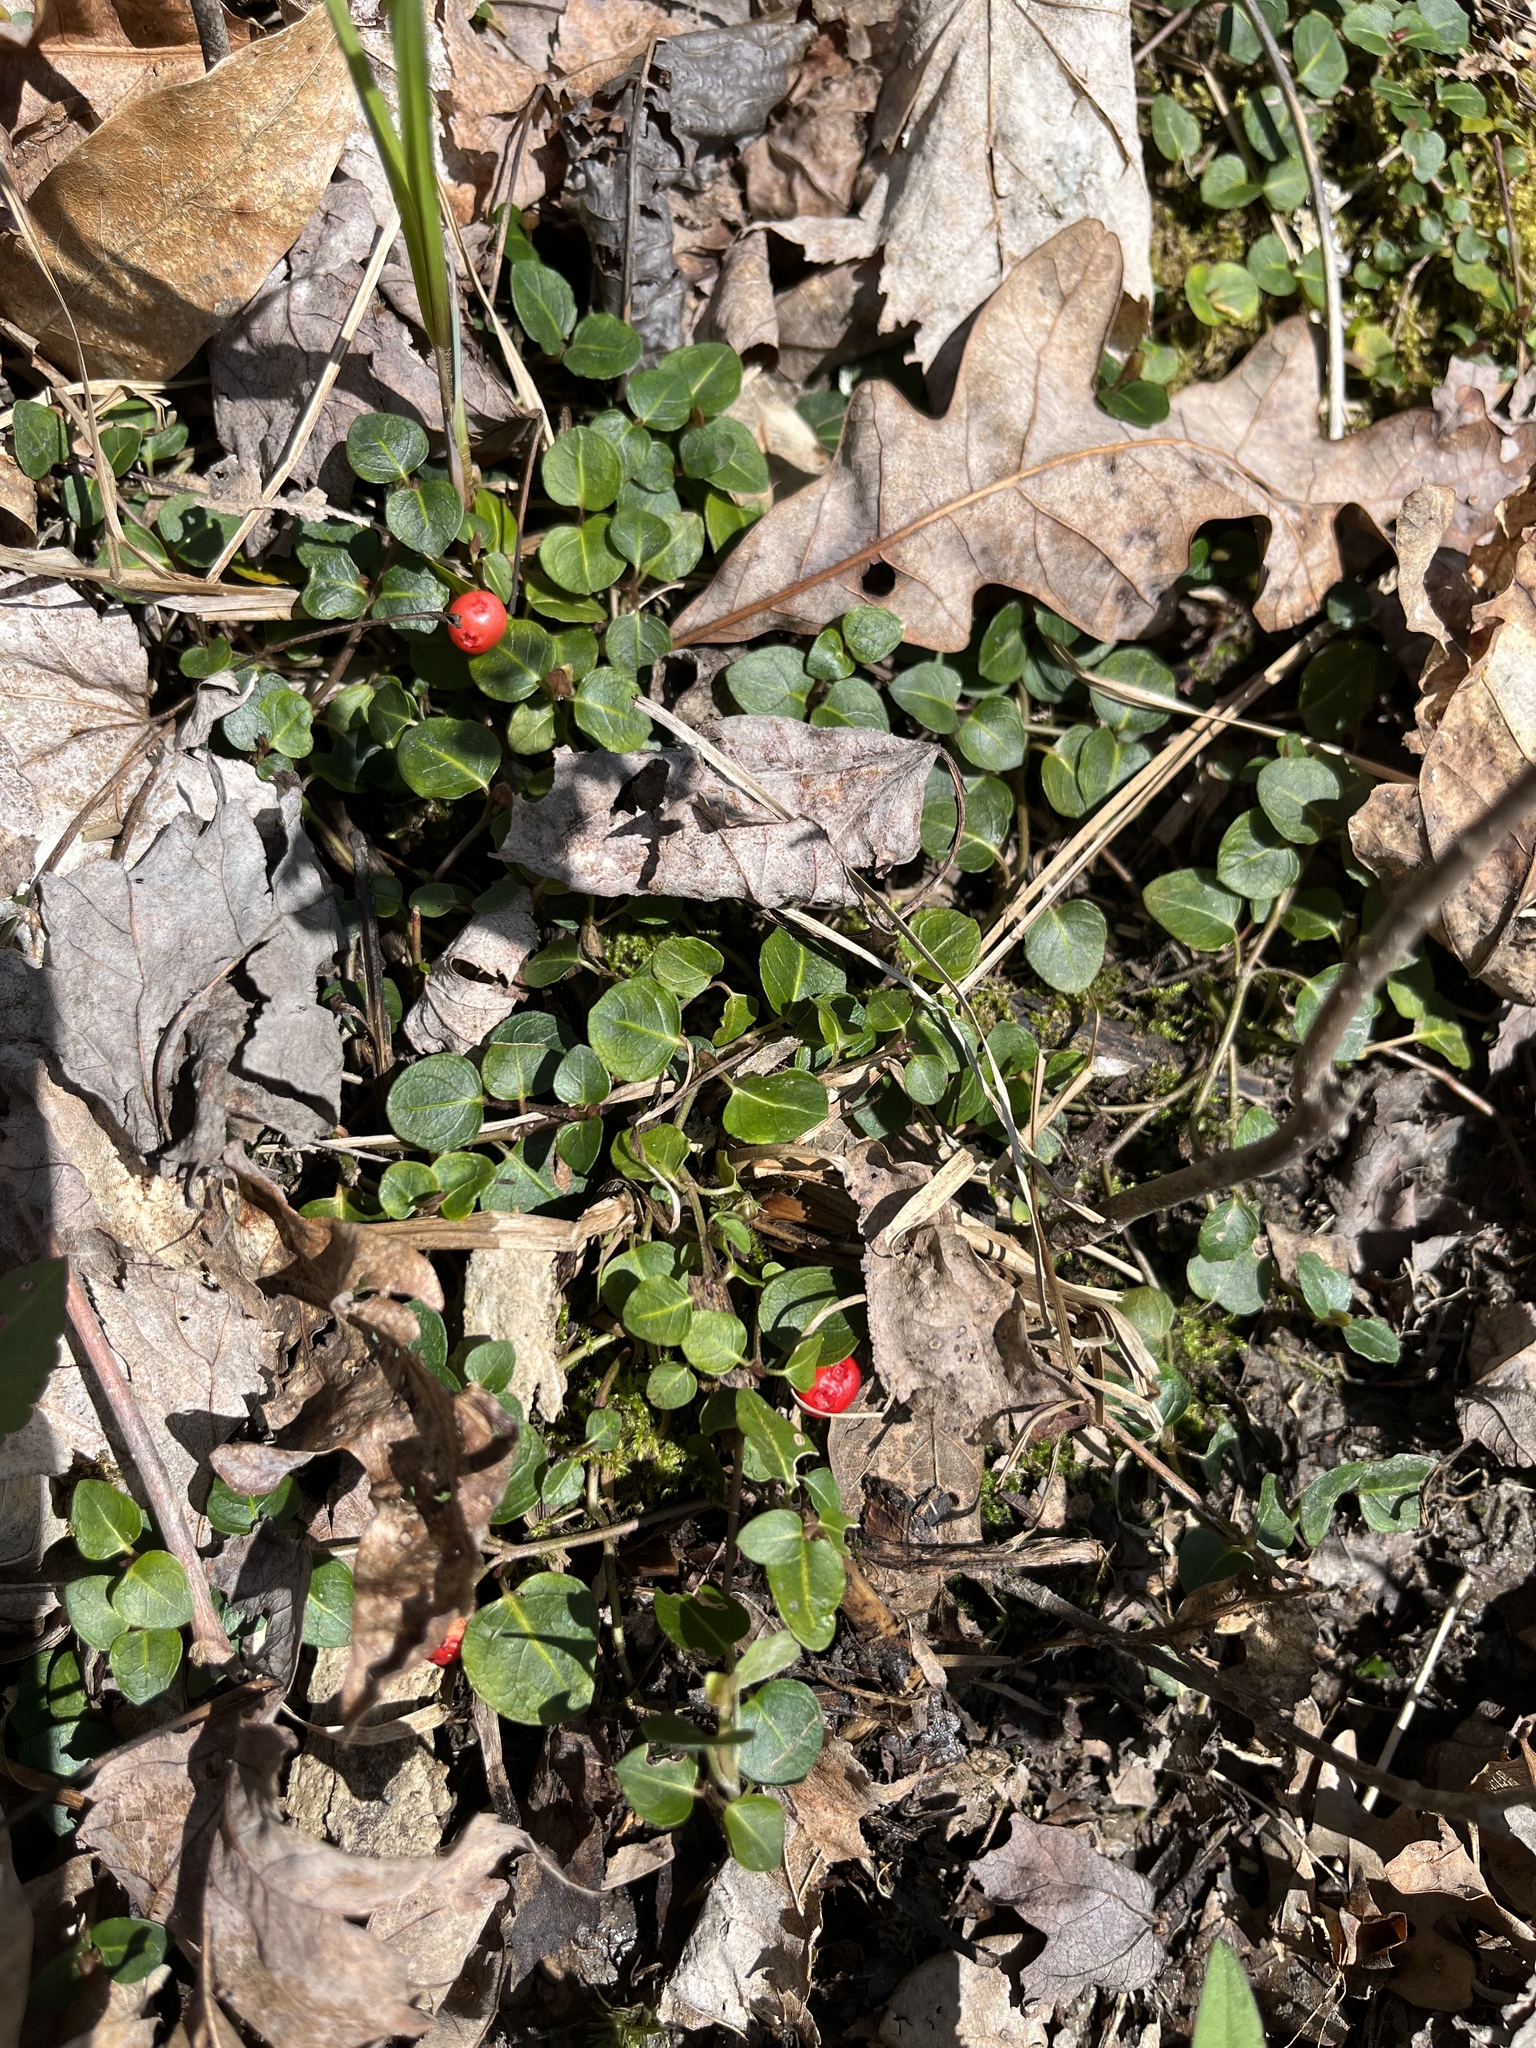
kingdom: Plantae
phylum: Tracheophyta
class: Magnoliopsida
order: Gentianales
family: Rubiaceae
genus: Mitchella
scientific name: Mitchella repens
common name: Partridge-berry
